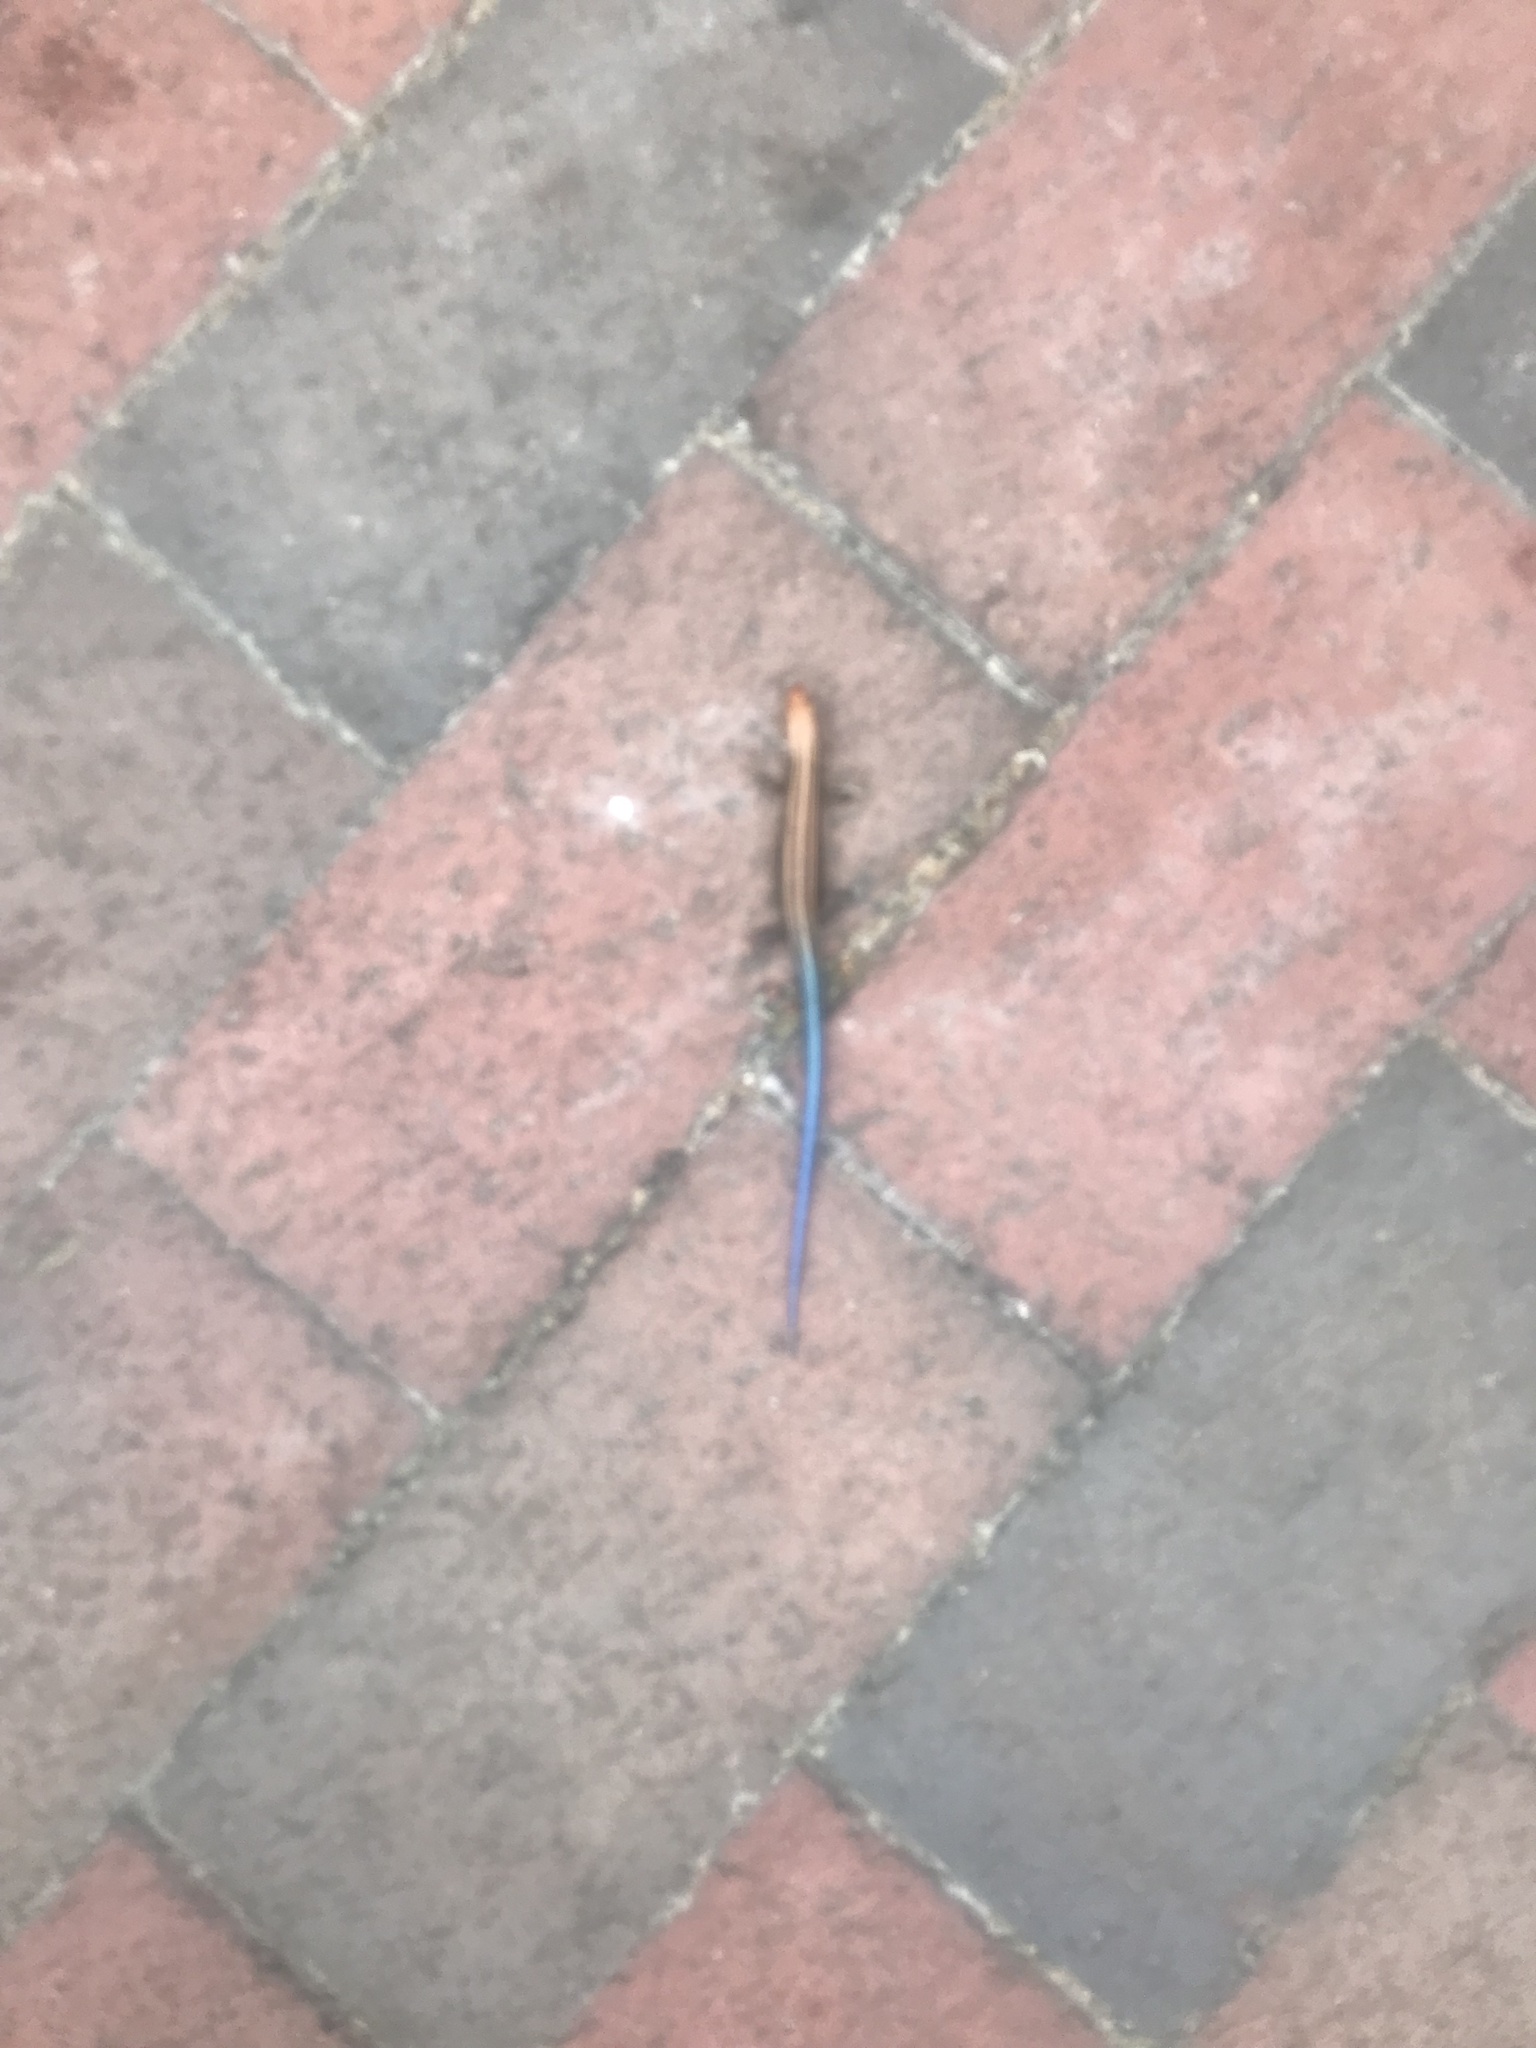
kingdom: Animalia
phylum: Chordata
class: Squamata
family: Scincidae
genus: Plestiodon
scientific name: Plestiodon fasciatus
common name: Five-lined skink
